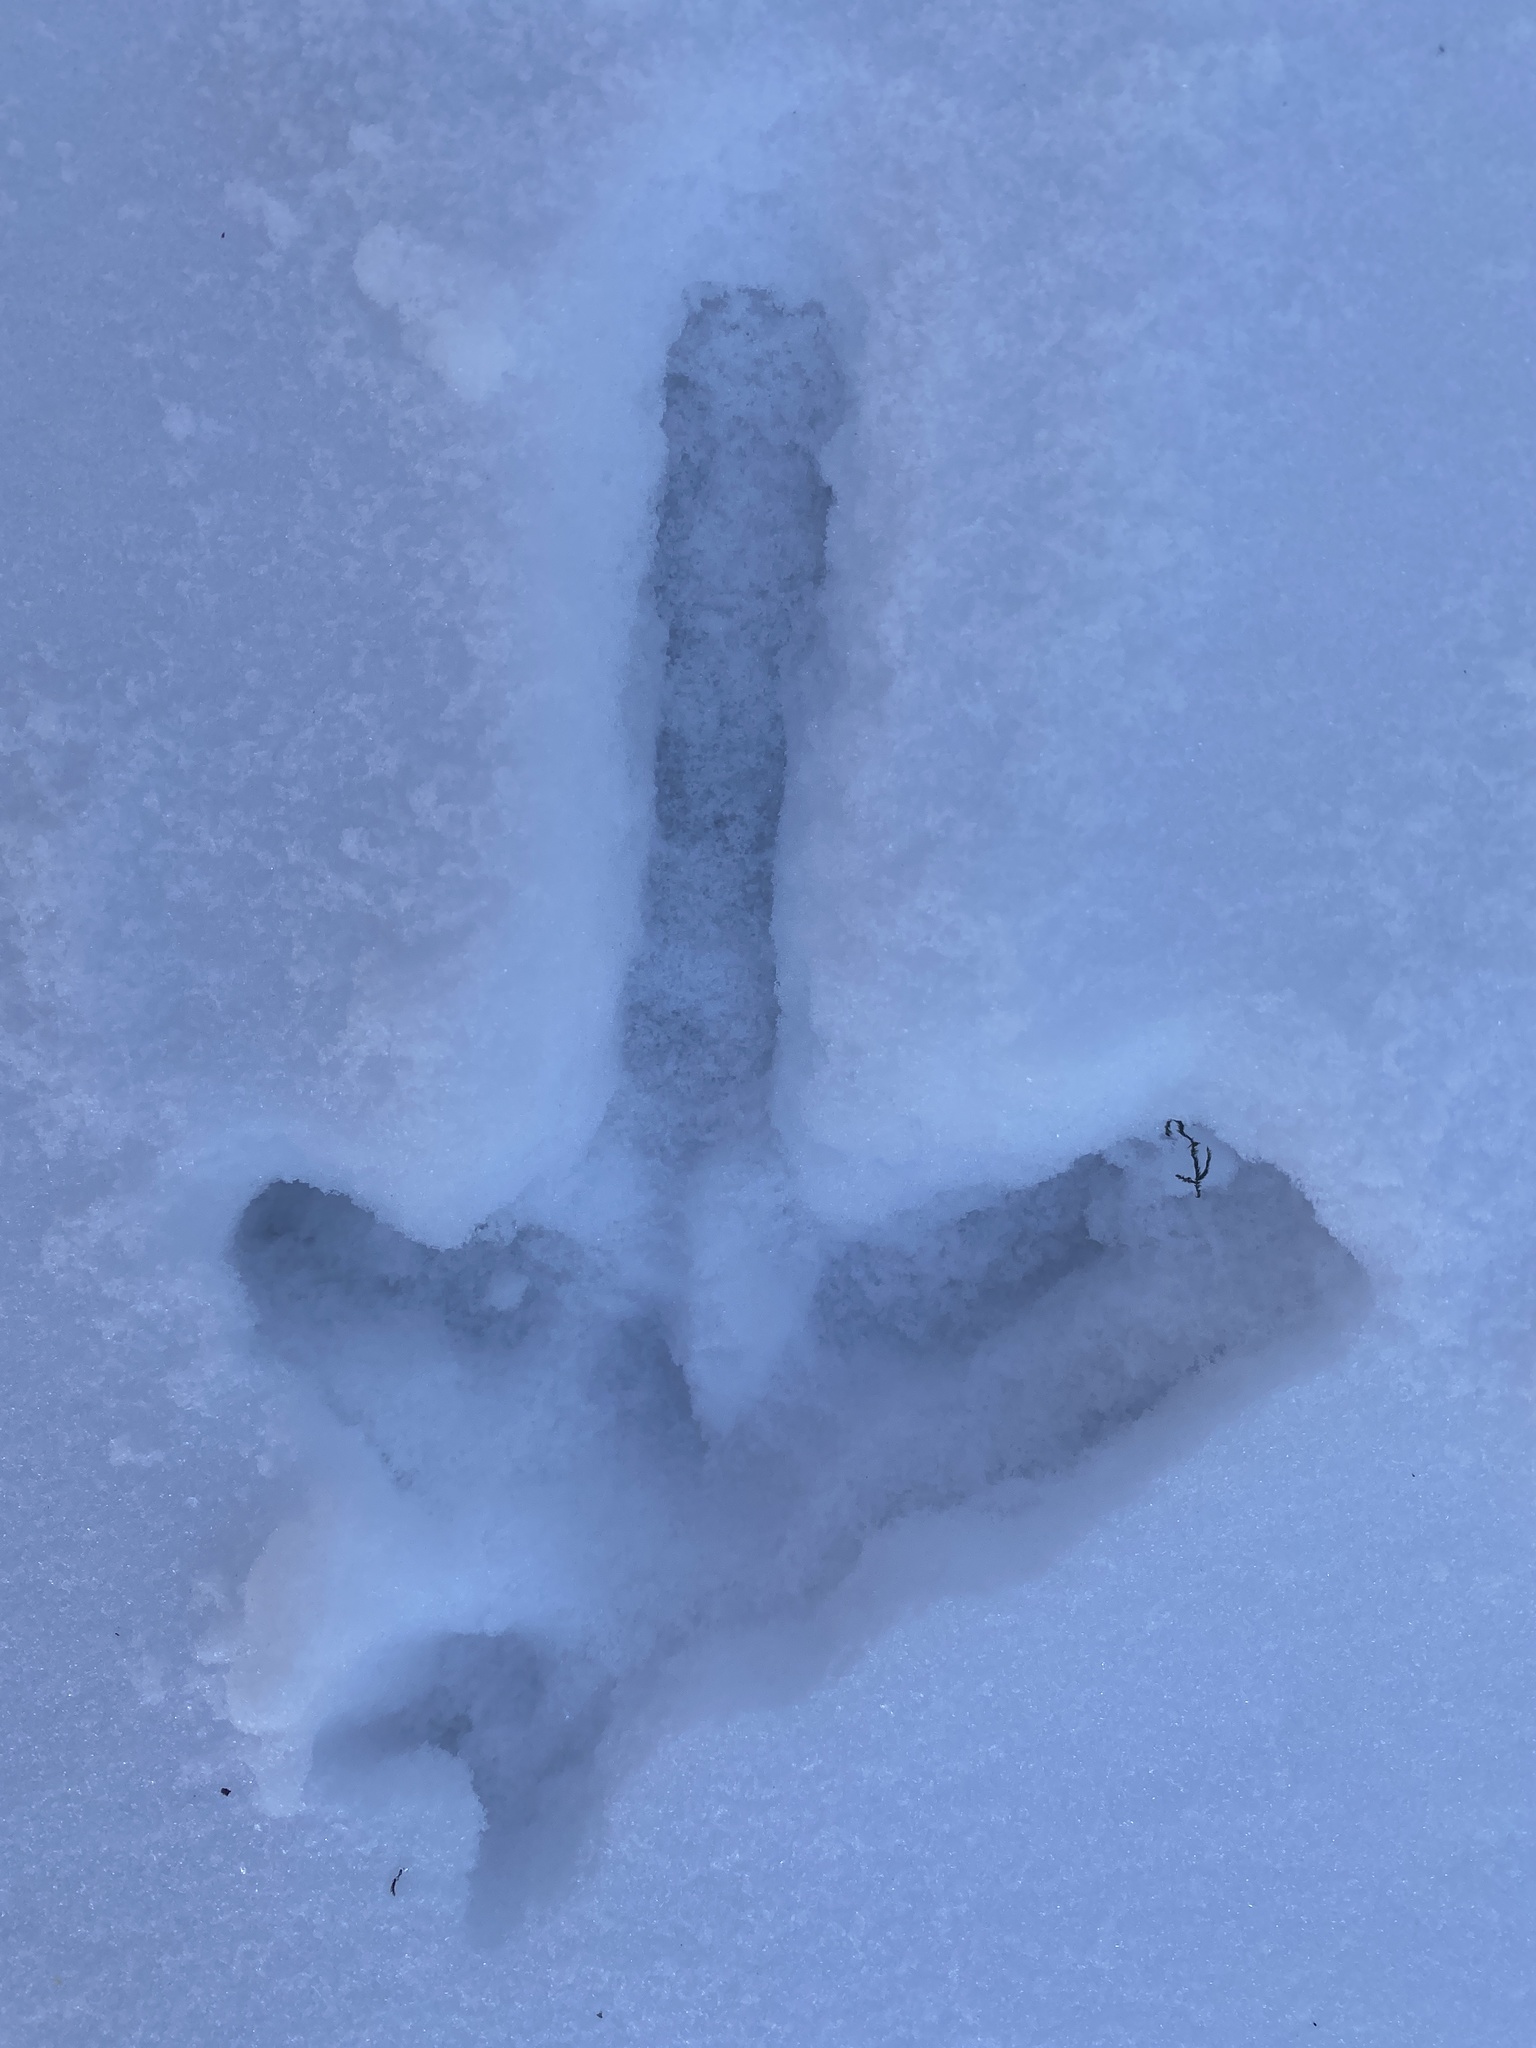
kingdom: Animalia
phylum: Chordata
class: Aves
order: Galliformes
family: Phasianidae
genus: Meleagris
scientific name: Meleagris gallopavo
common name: Wild turkey
